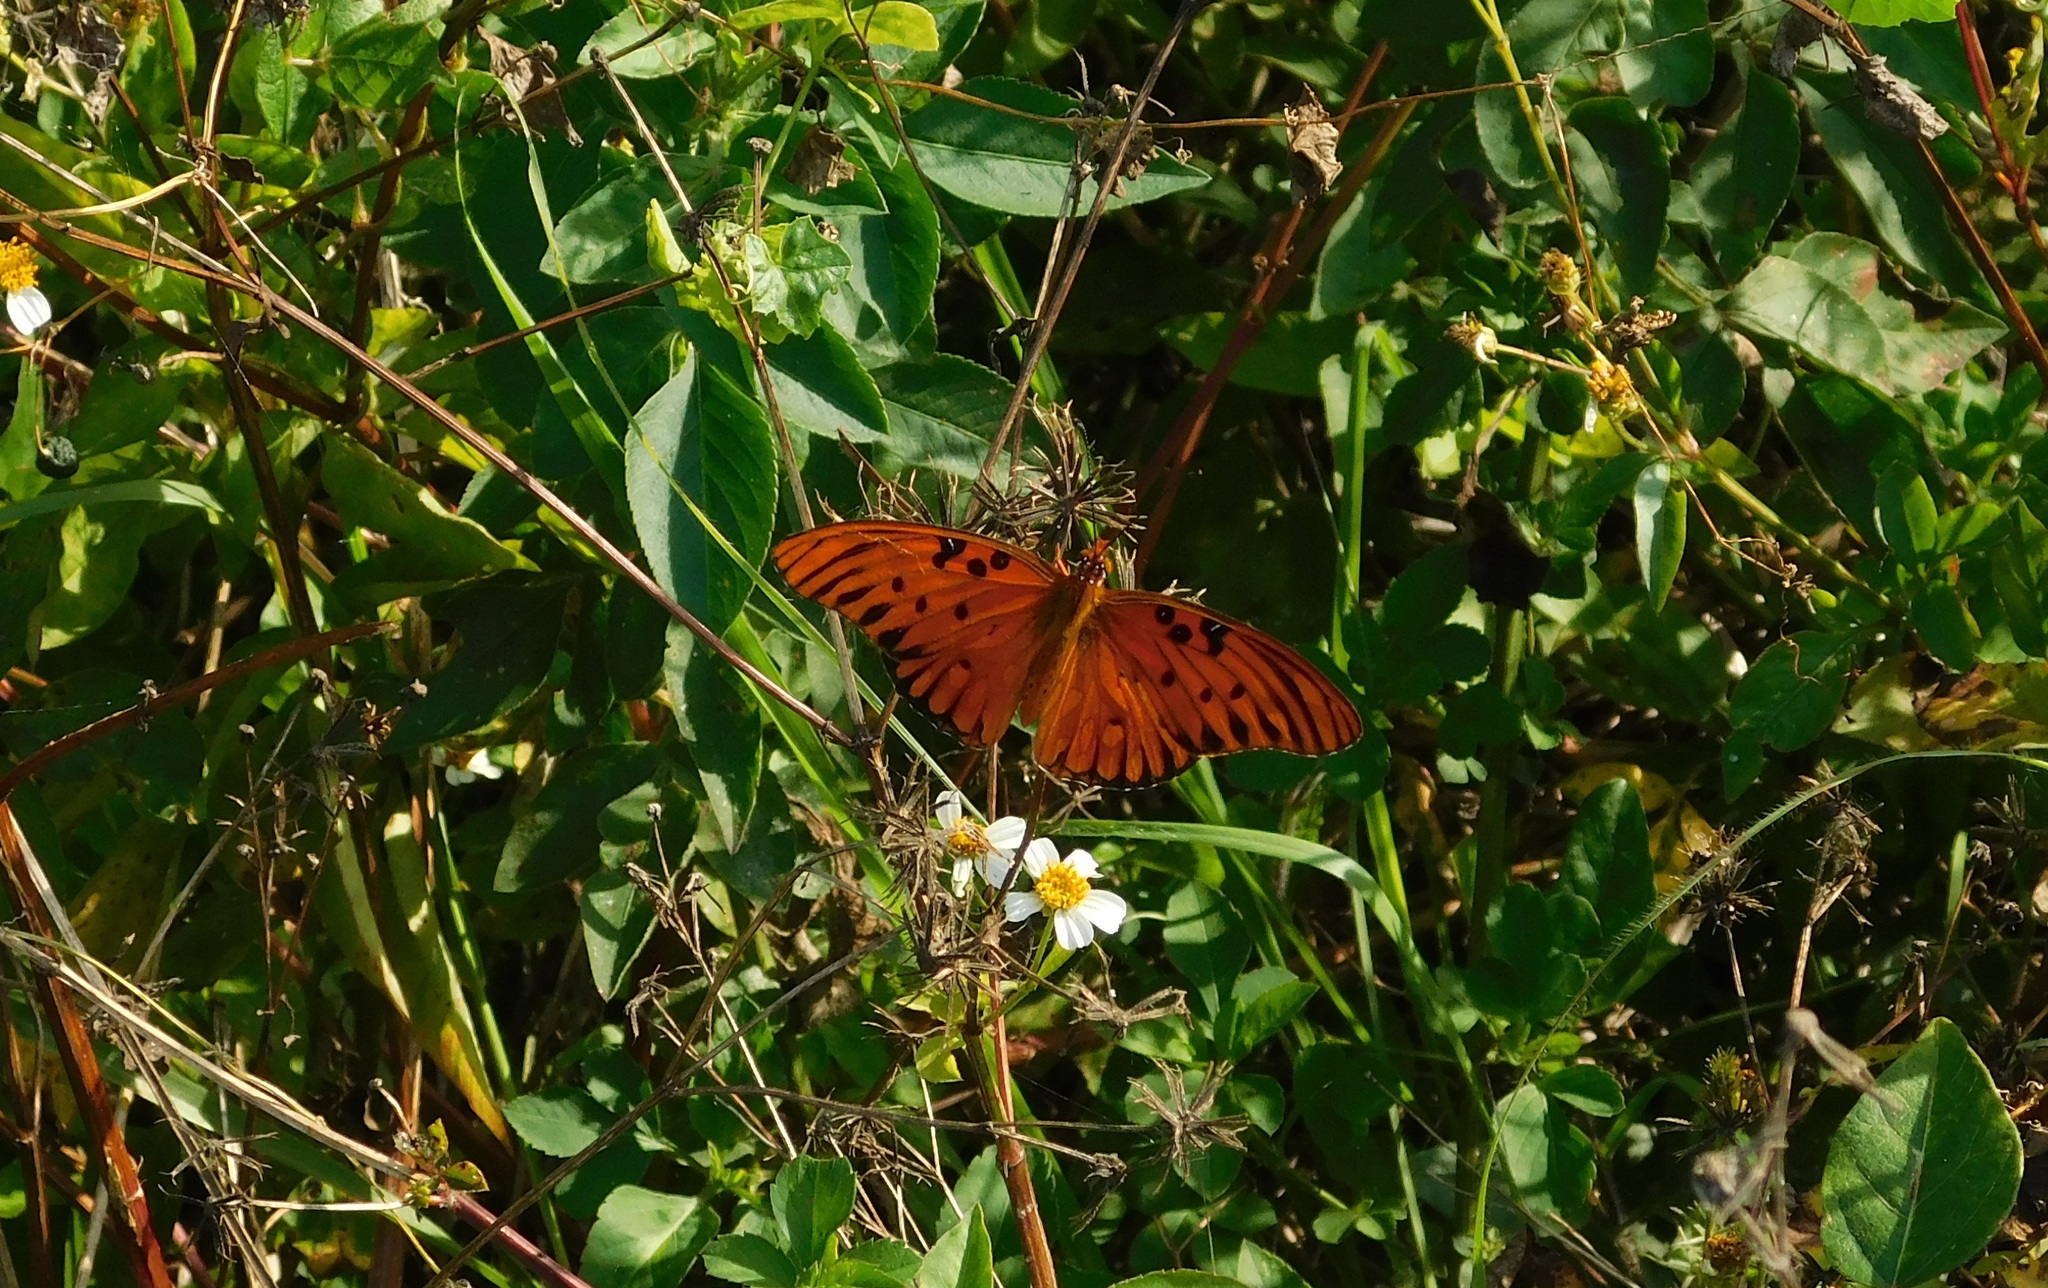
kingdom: Animalia
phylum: Arthropoda
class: Insecta
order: Lepidoptera
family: Nymphalidae
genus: Dione
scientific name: Dione vanillae
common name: Gulf fritillary
